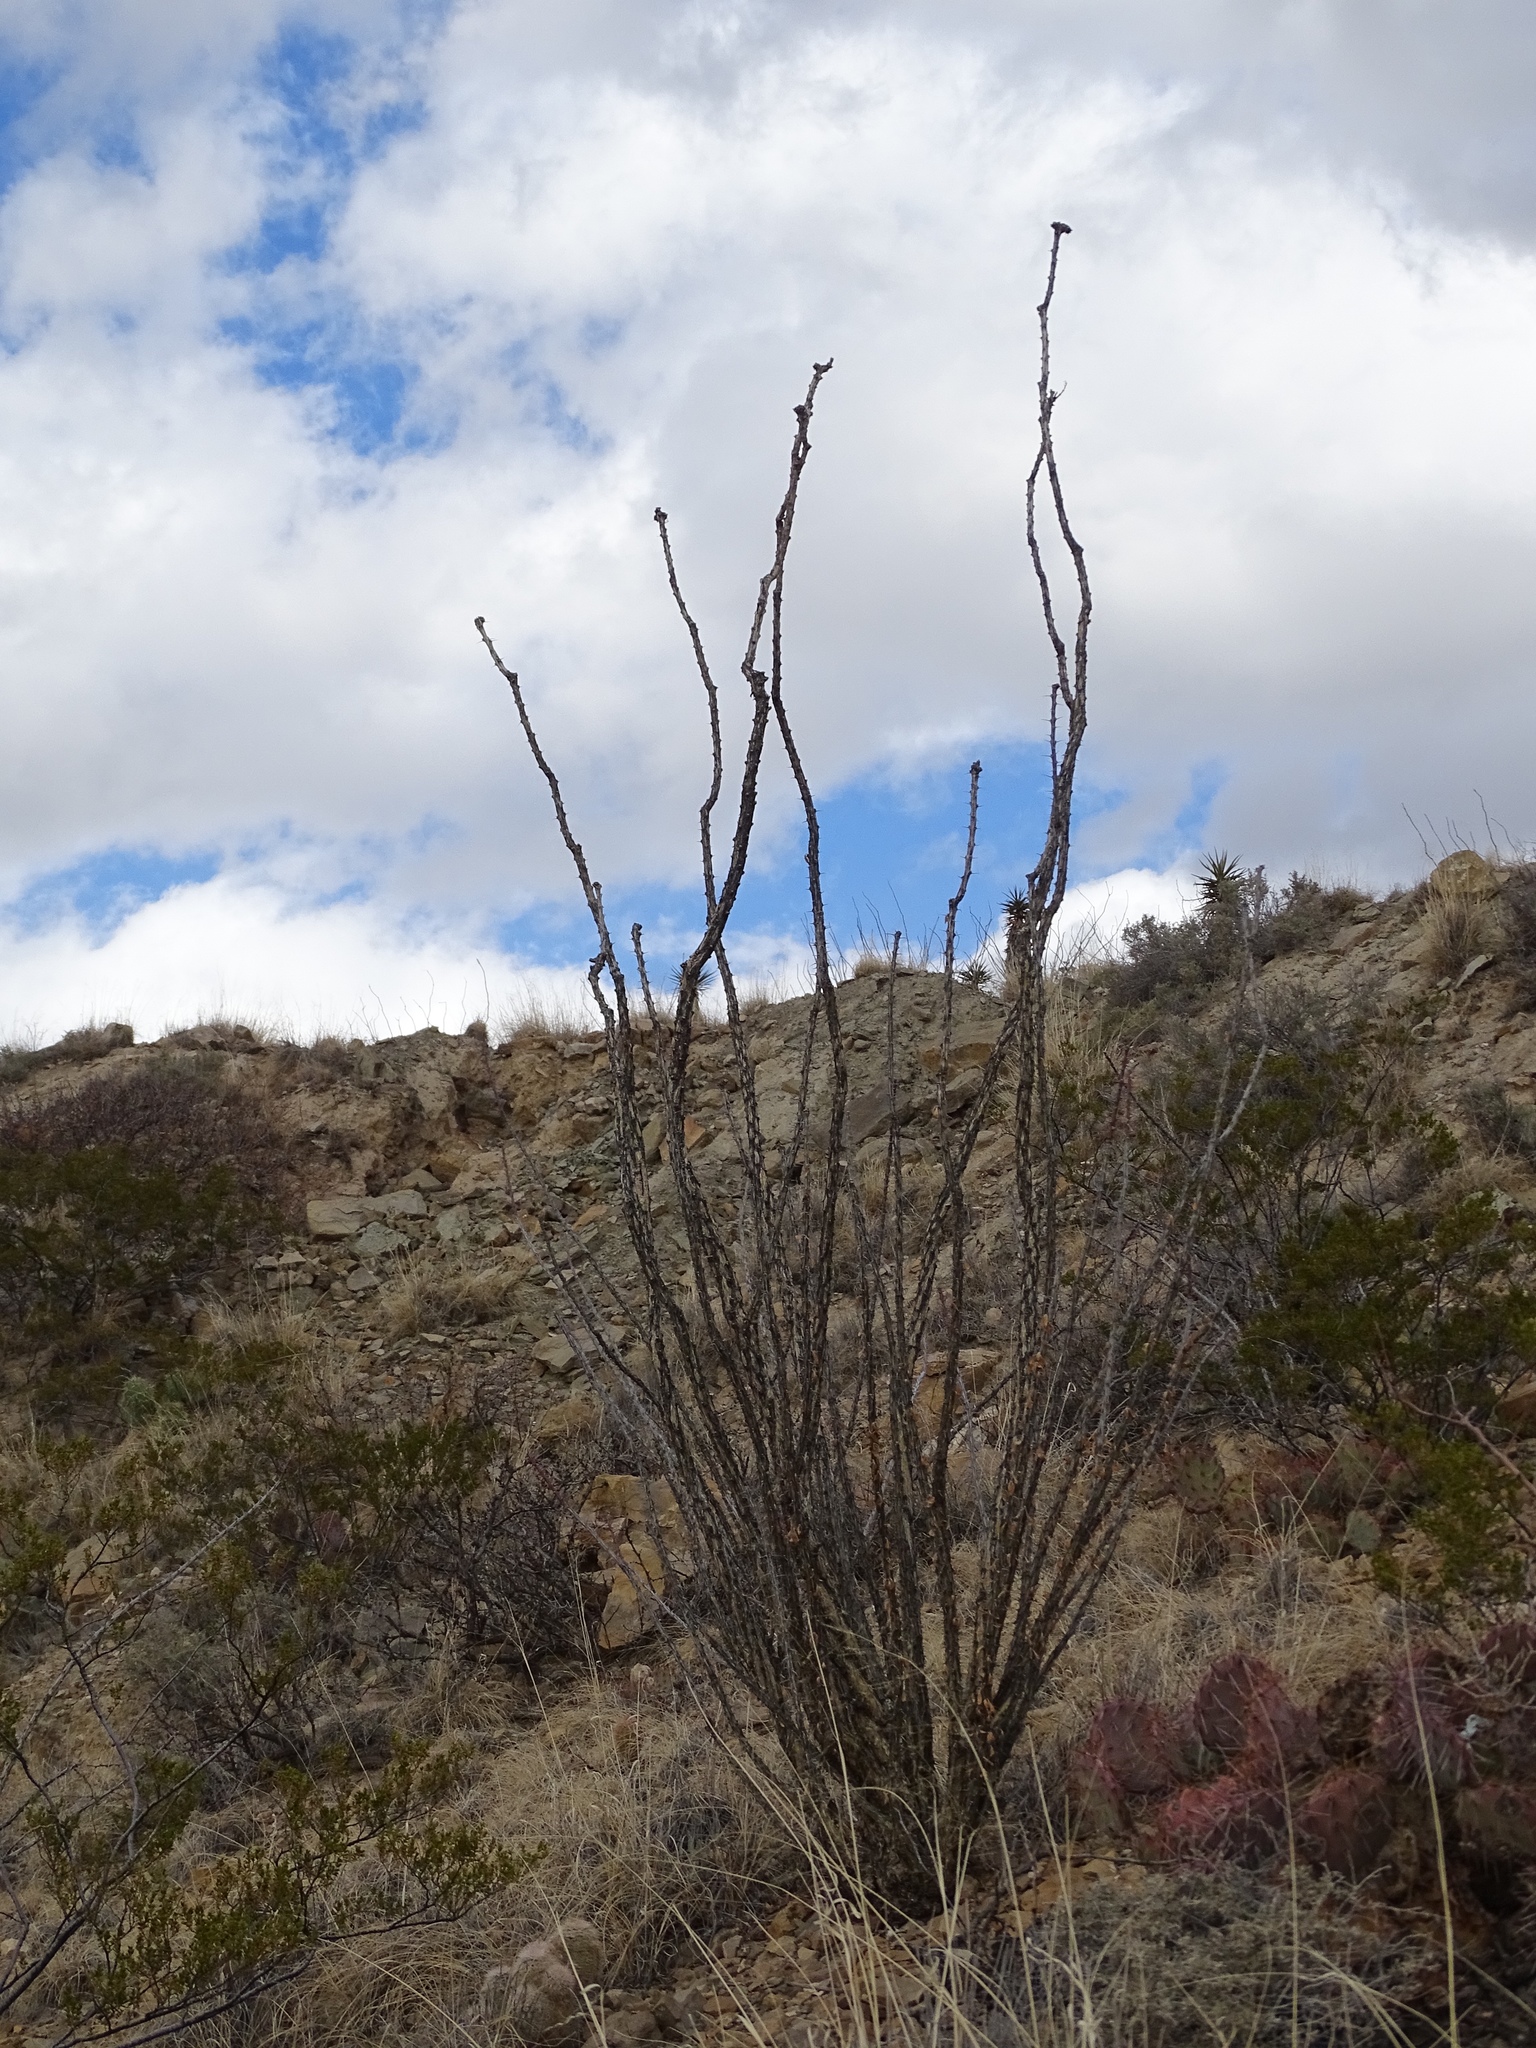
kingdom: Plantae
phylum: Tracheophyta
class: Magnoliopsida
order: Ericales
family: Fouquieriaceae
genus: Fouquieria
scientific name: Fouquieria splendens
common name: Vine-cactus
